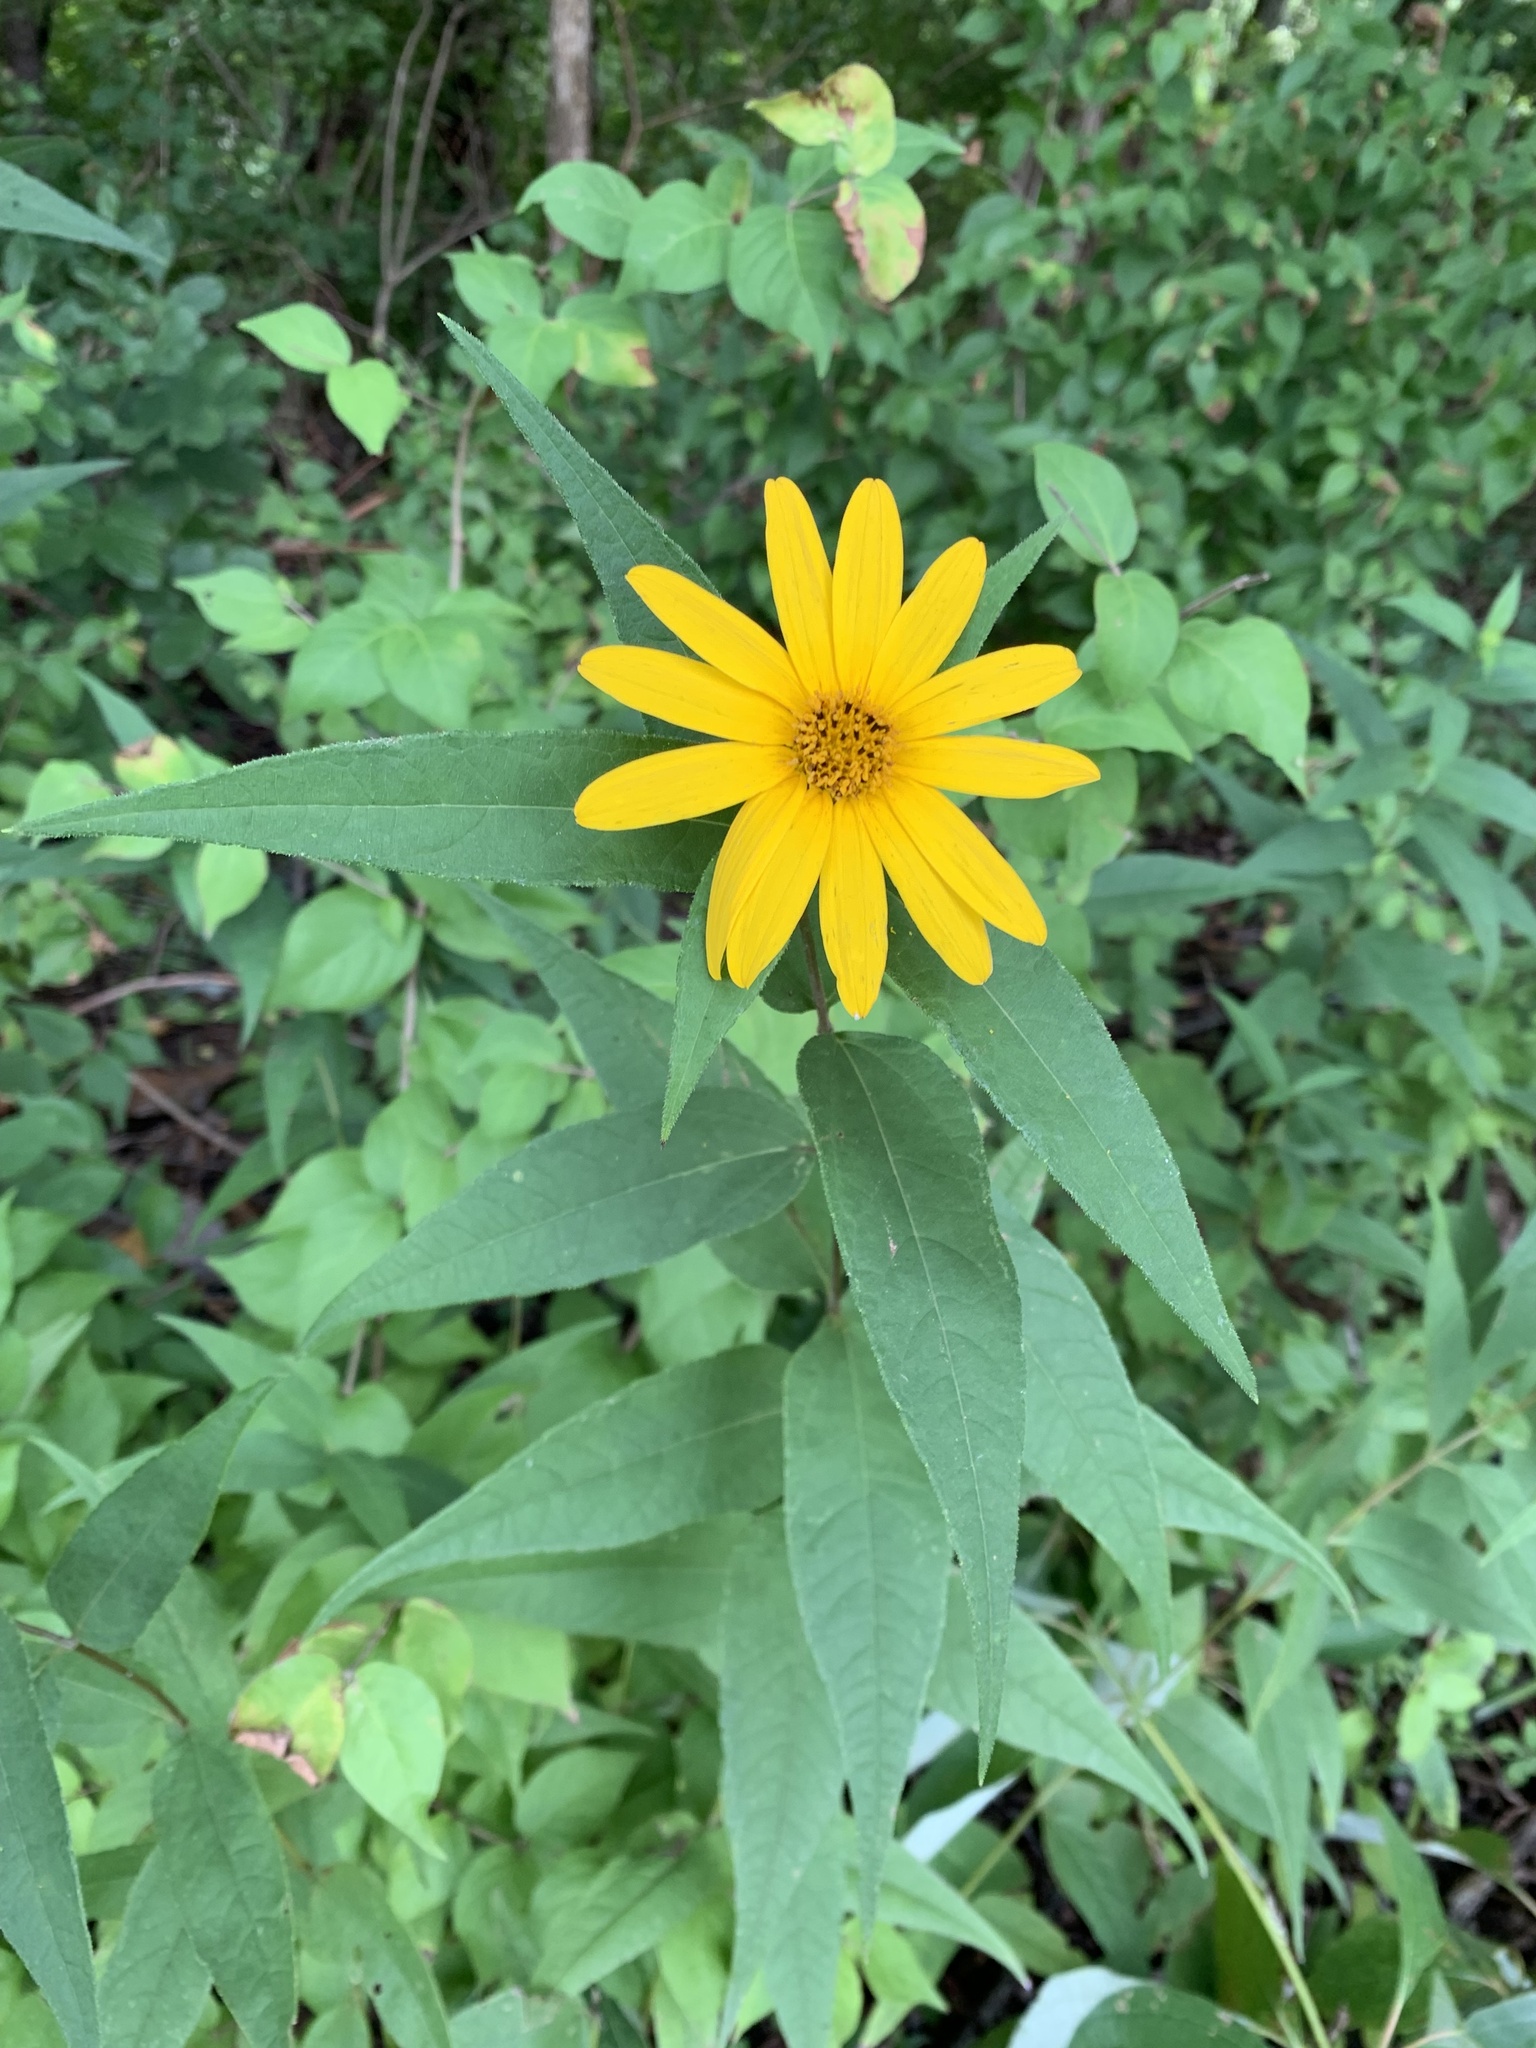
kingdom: Plantae
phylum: Tracheophyta
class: Magnoliopsida
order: Asterales
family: Asteraceae
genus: Helianthus
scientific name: Helianthus divaricatus
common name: Divergent sunflower
